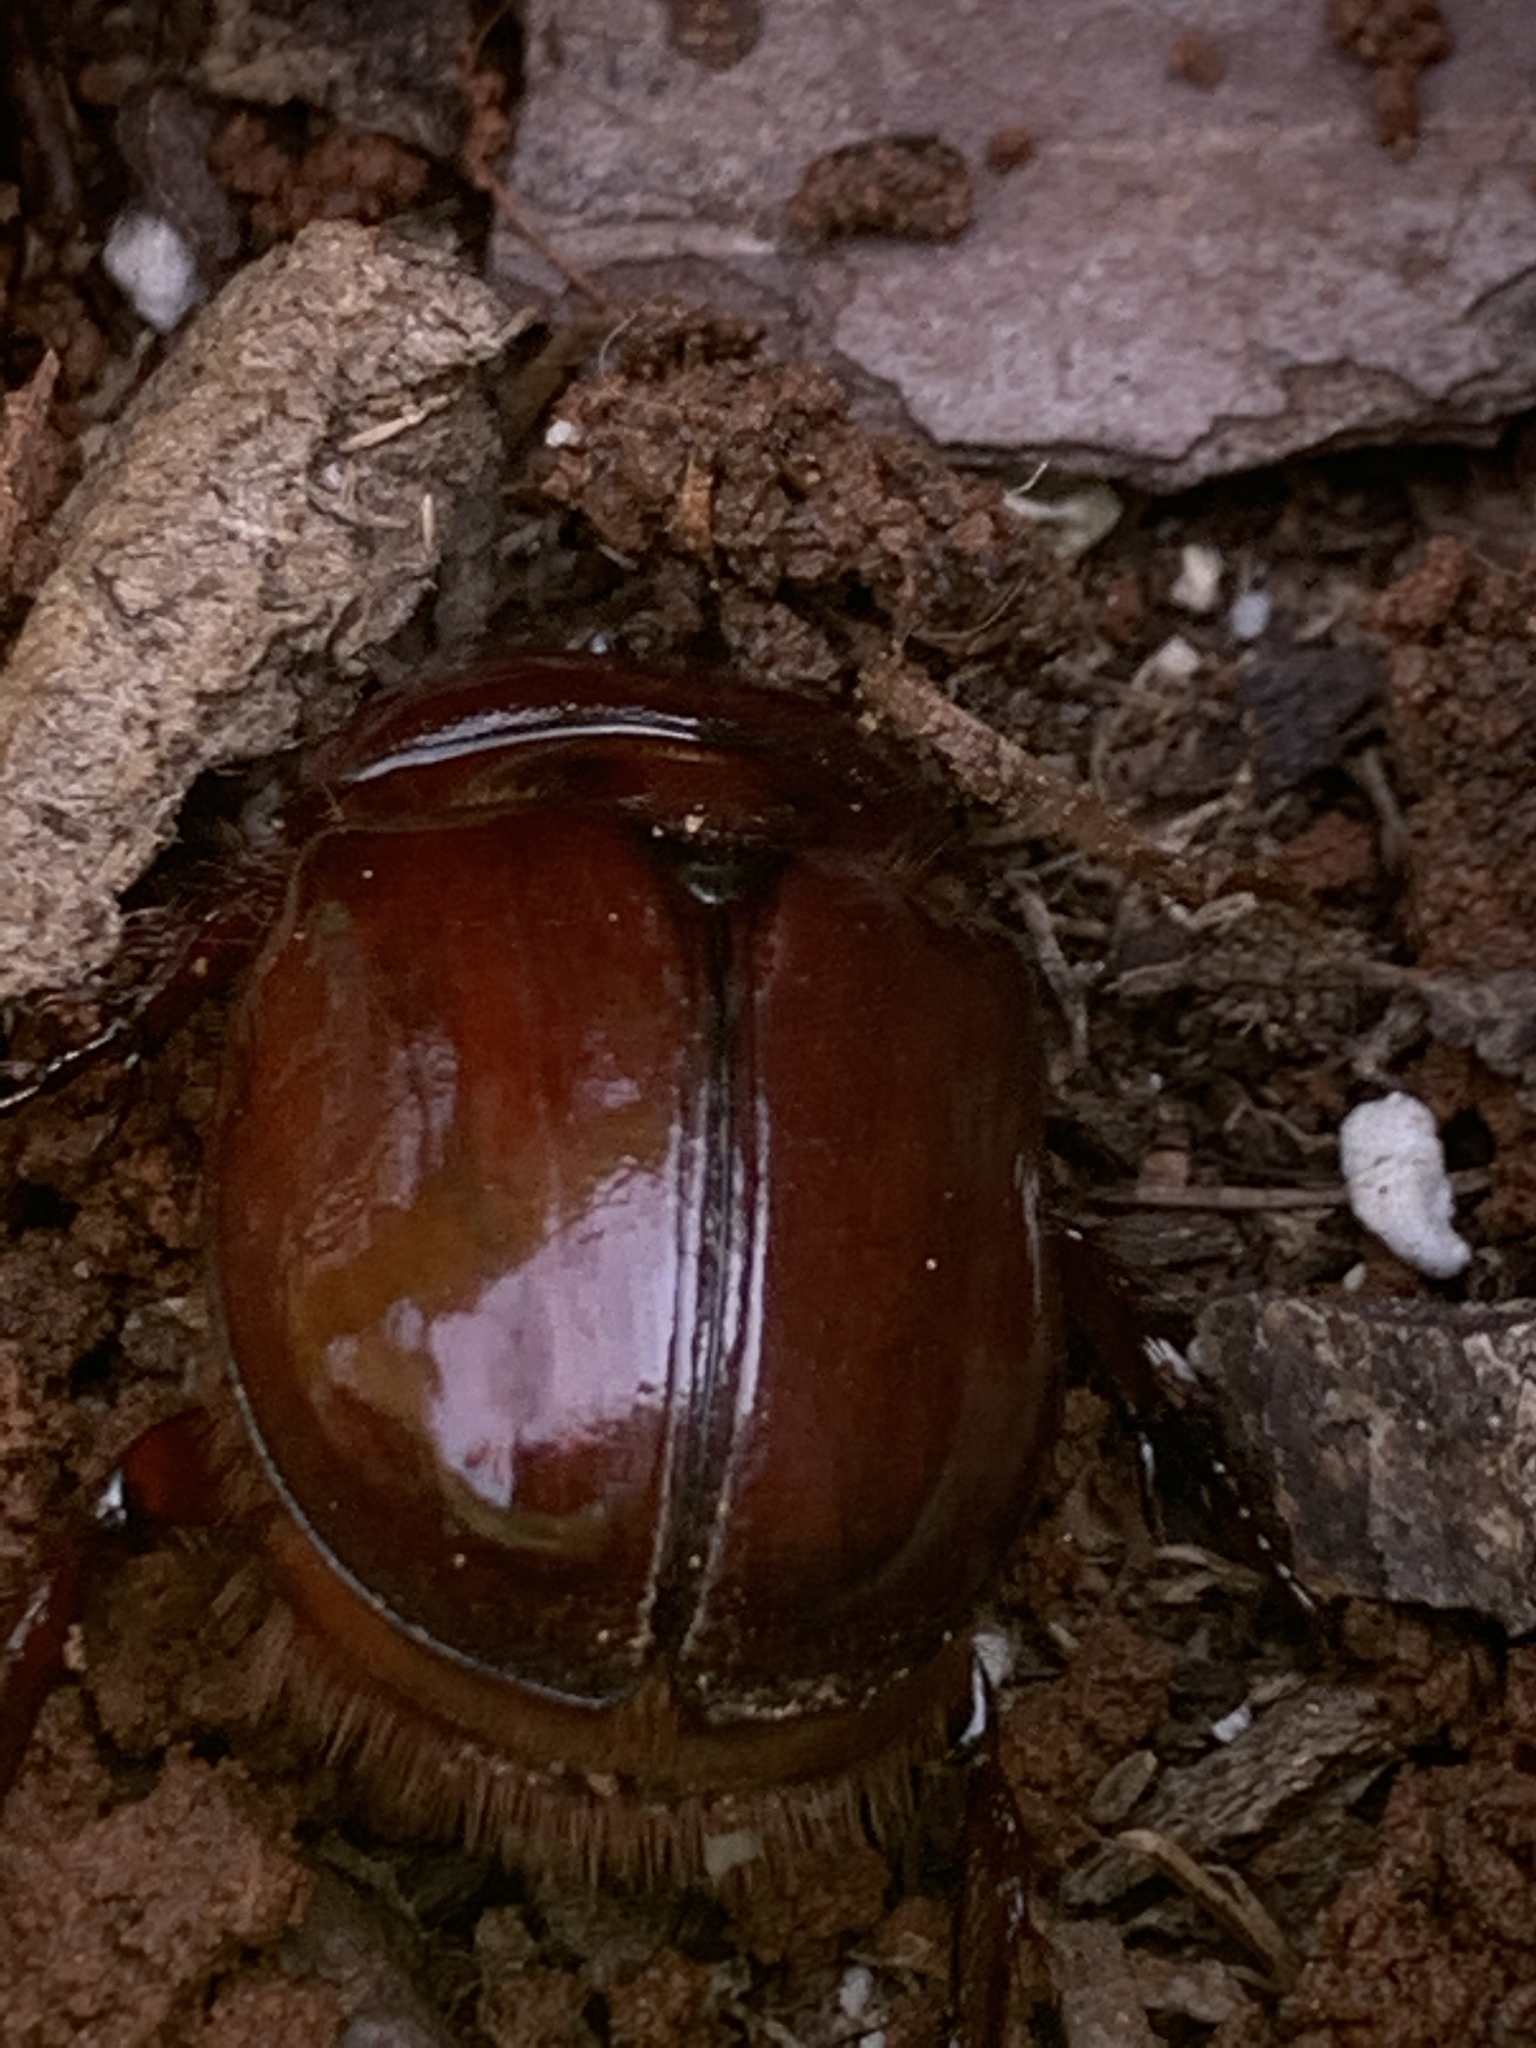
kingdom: Animalia
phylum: Arthropoda
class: Insecta
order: Coleoptera
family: Scarabaeidae
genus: Strategus
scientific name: Strategus mormon
